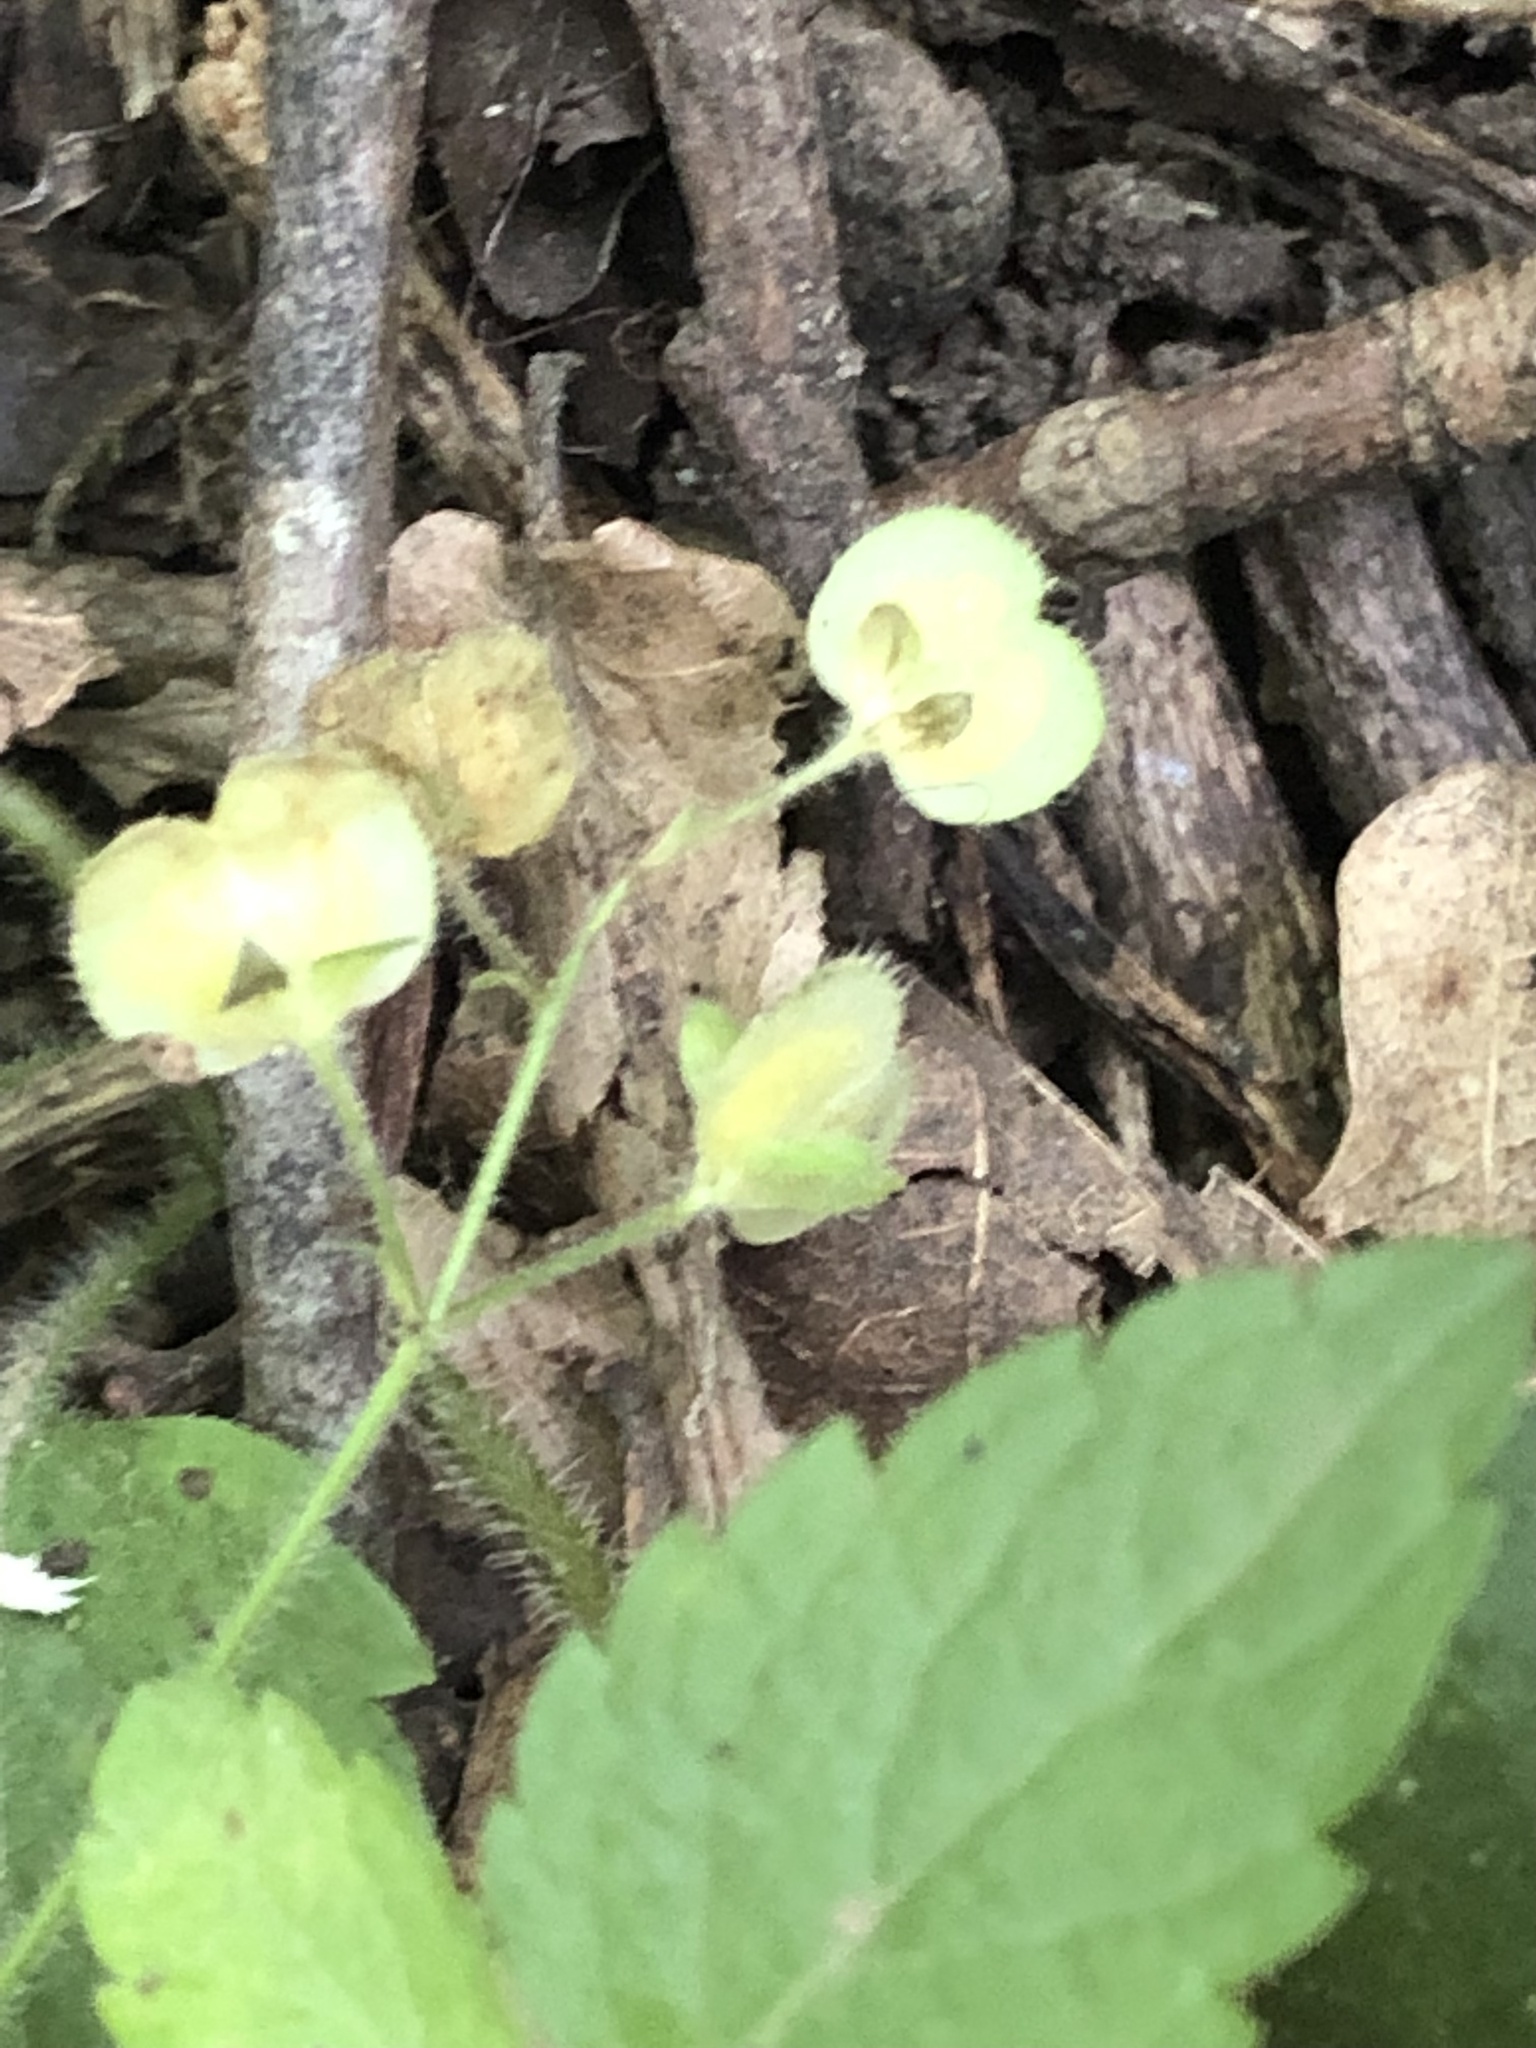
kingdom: Plantae
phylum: Tracheophyta
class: Magnoliopsida
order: Lamiales
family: Plantaginaceae
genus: Veronica
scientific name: Veronica montana
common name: Wood speedwell
